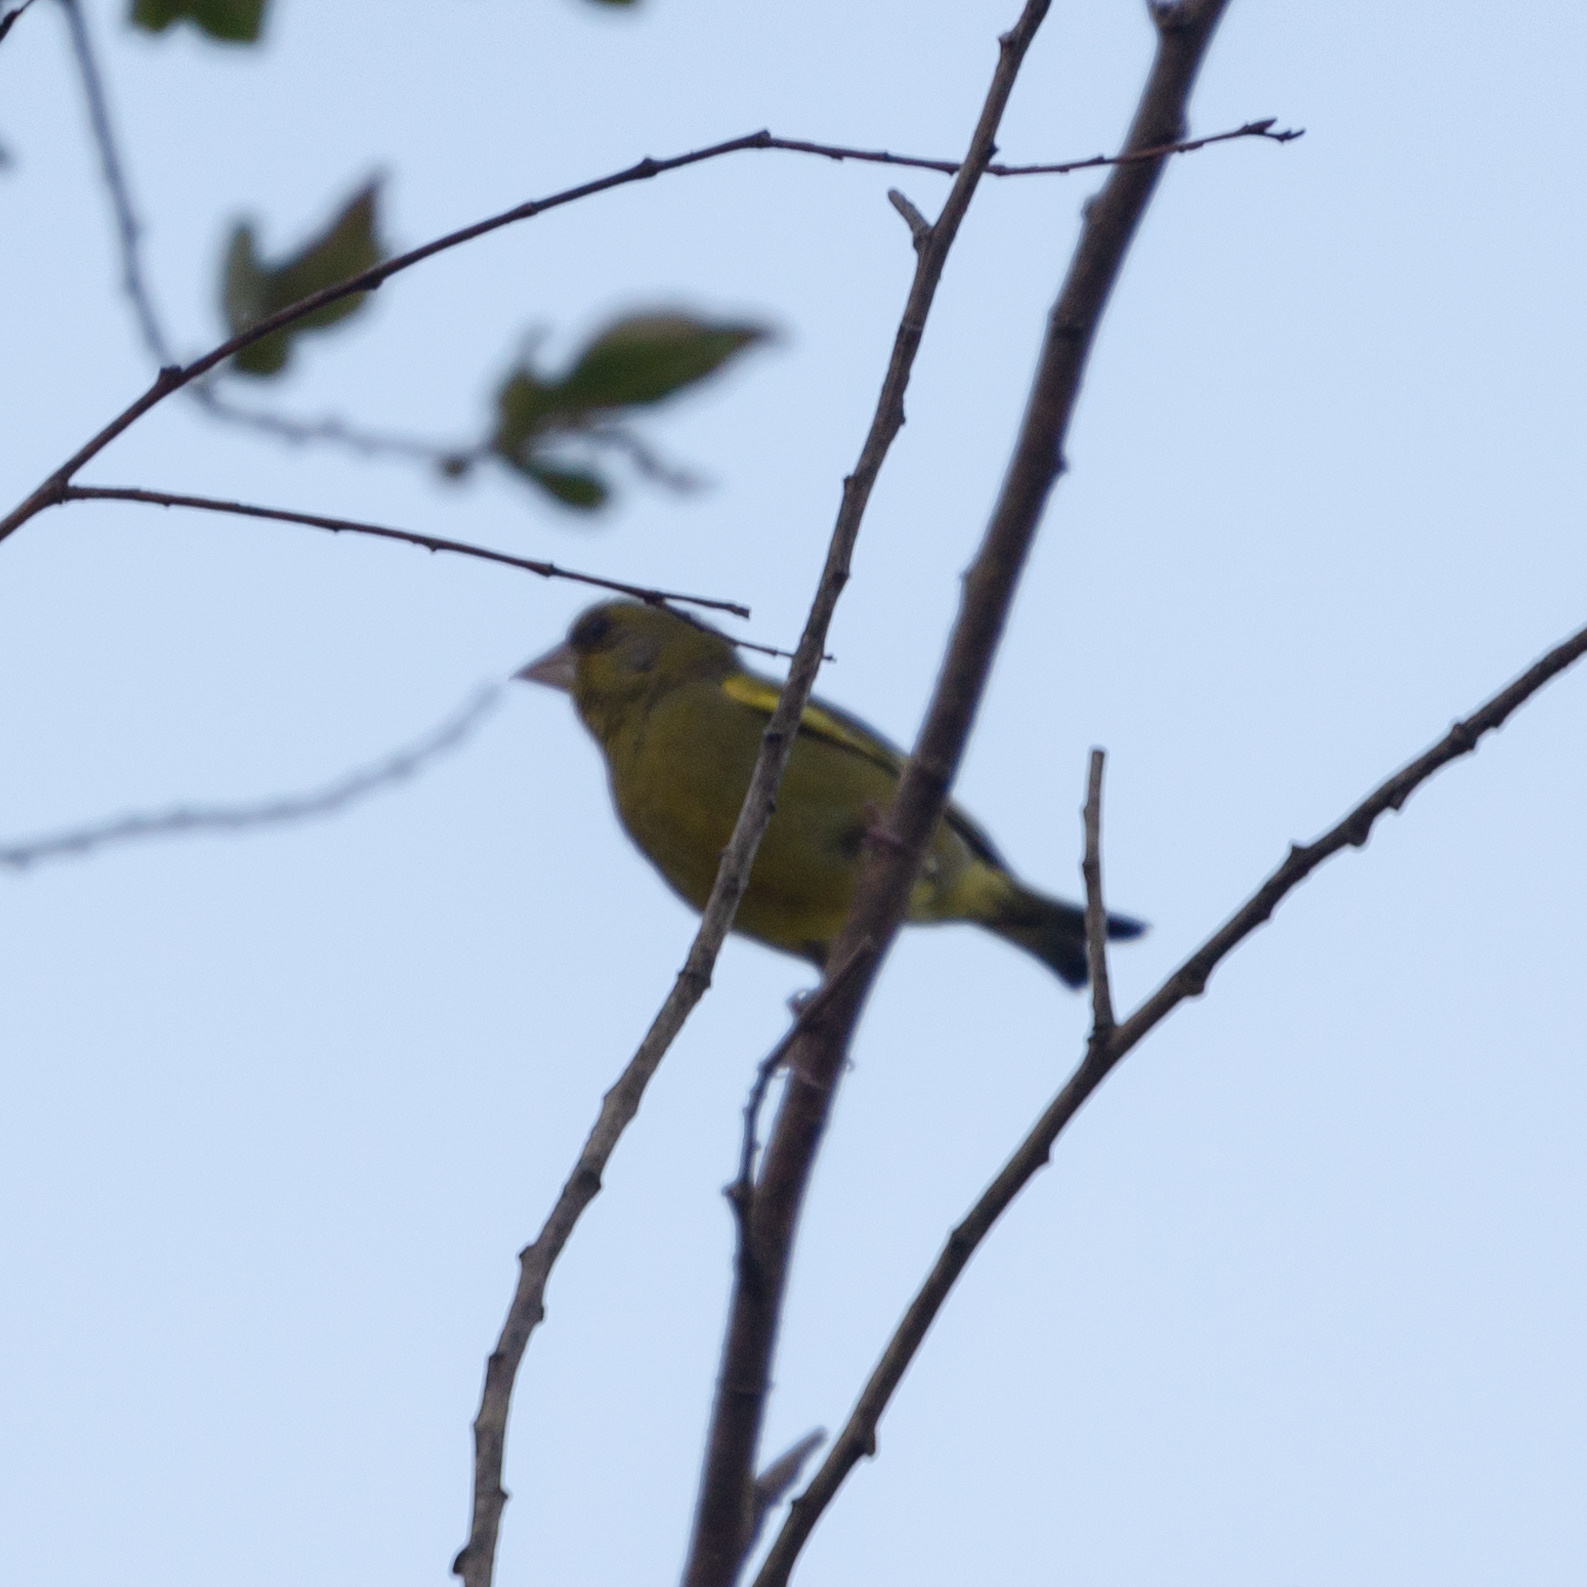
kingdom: Plantae
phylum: Tracheophyta
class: Liliopsida
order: Poales
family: Poaceae
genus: Chloris
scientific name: Chloris chloris
